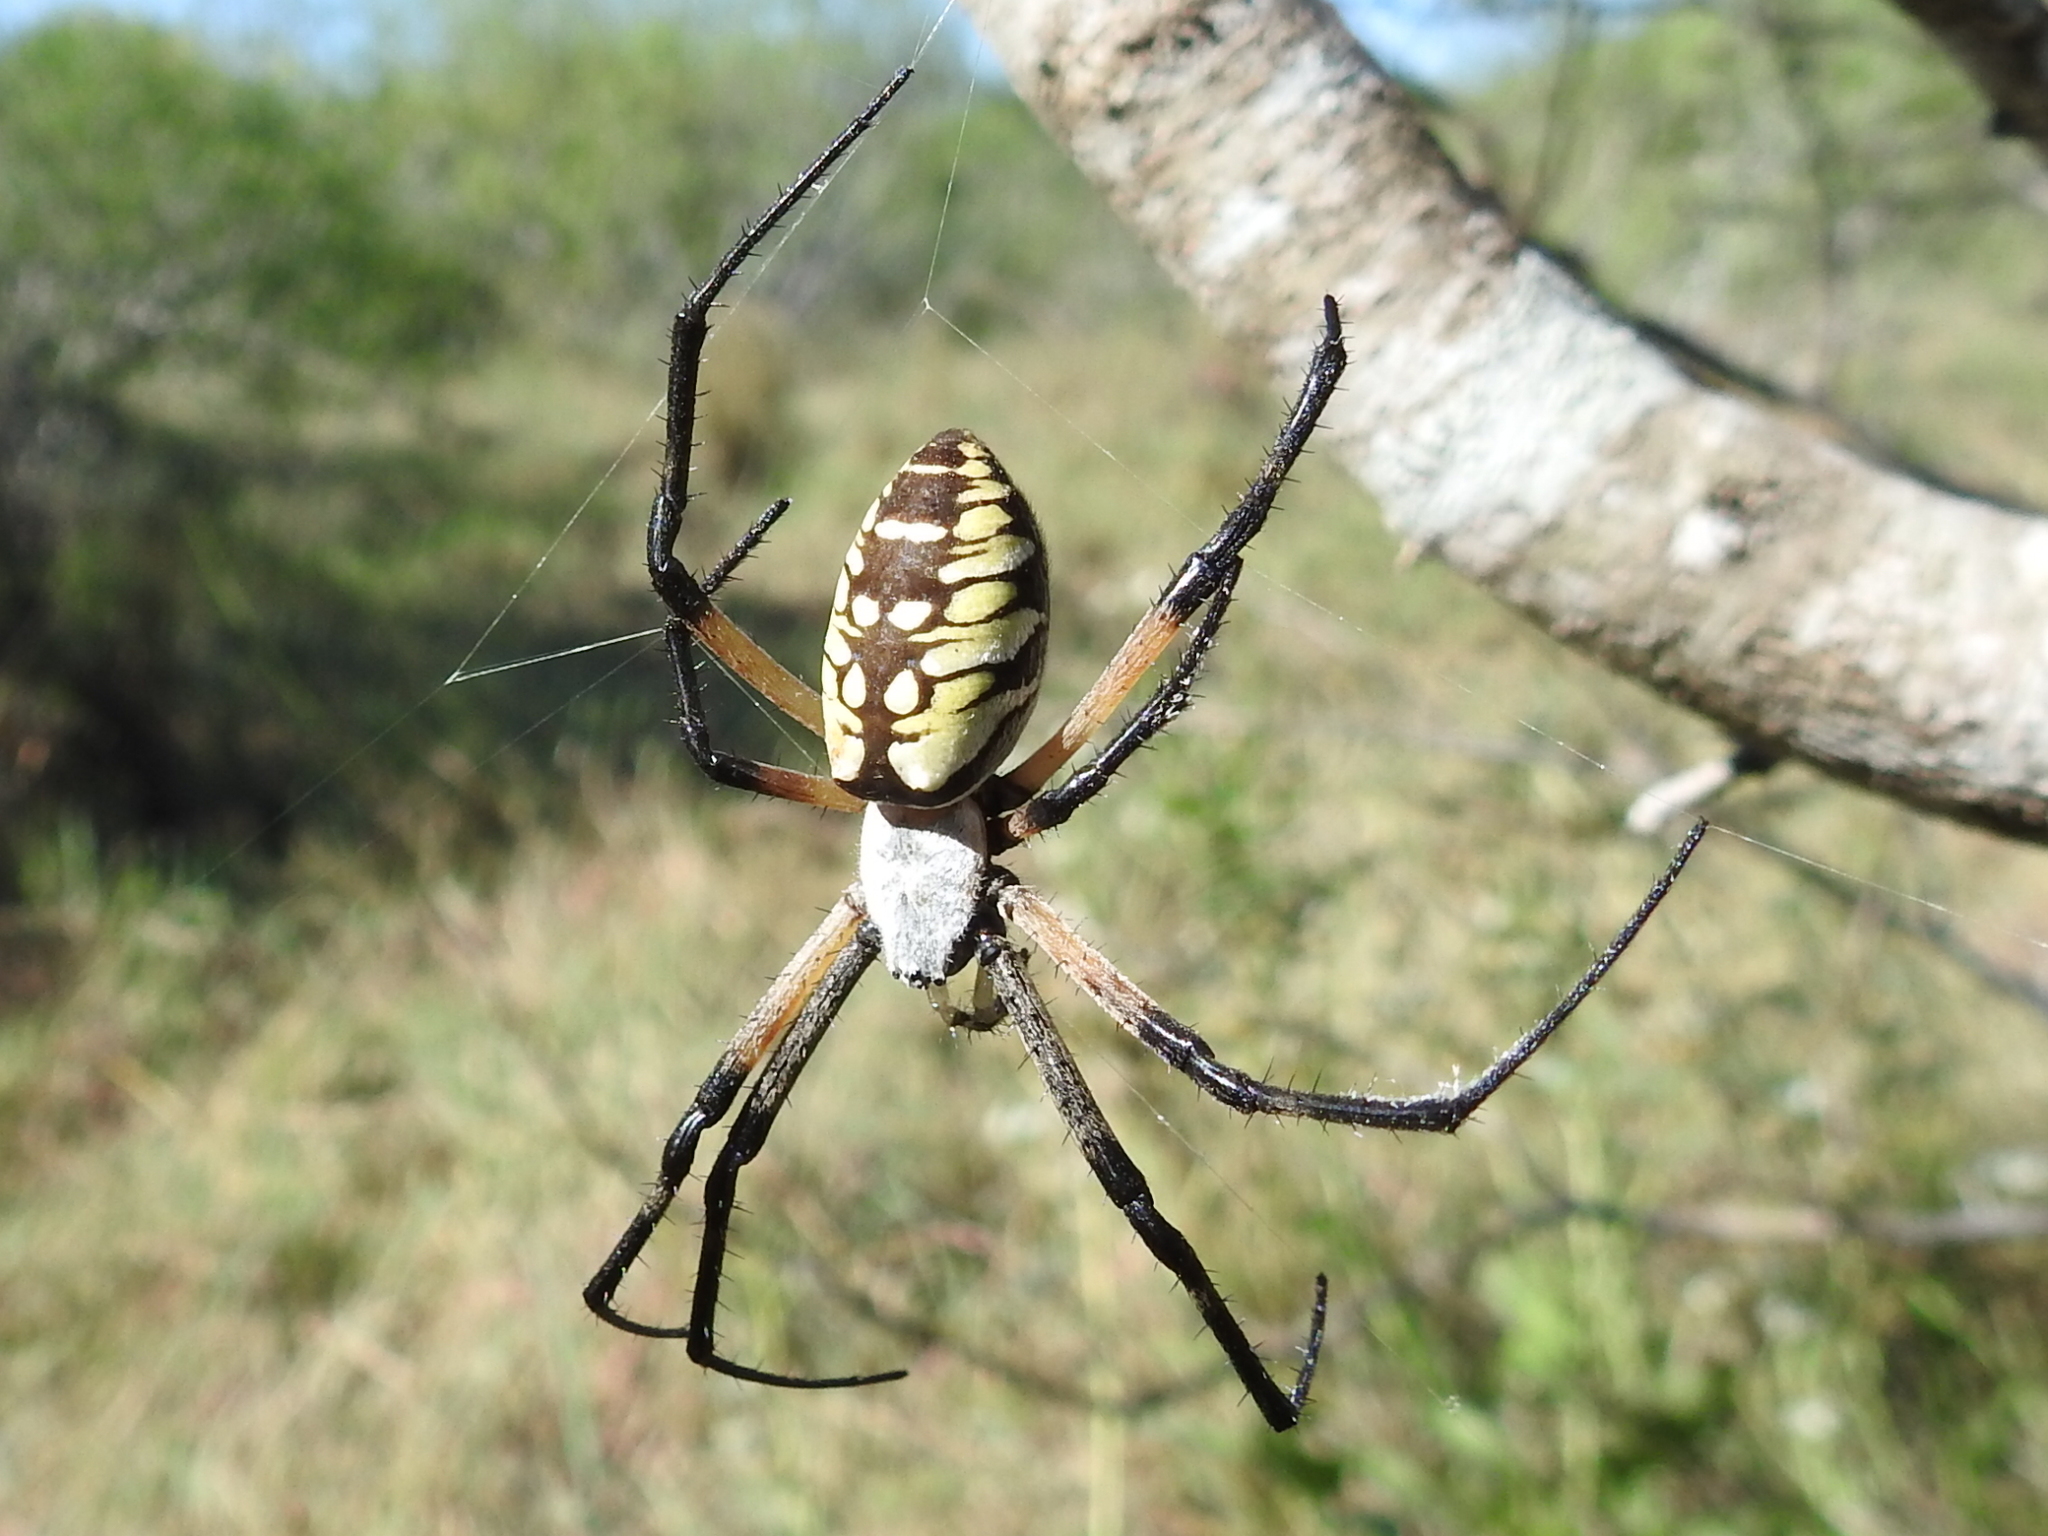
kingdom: Animalia
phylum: Arthropoda
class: Arachnida
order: Araneae
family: Araneidae
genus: Argiope
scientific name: Argiope aurantia
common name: Orb weavers
